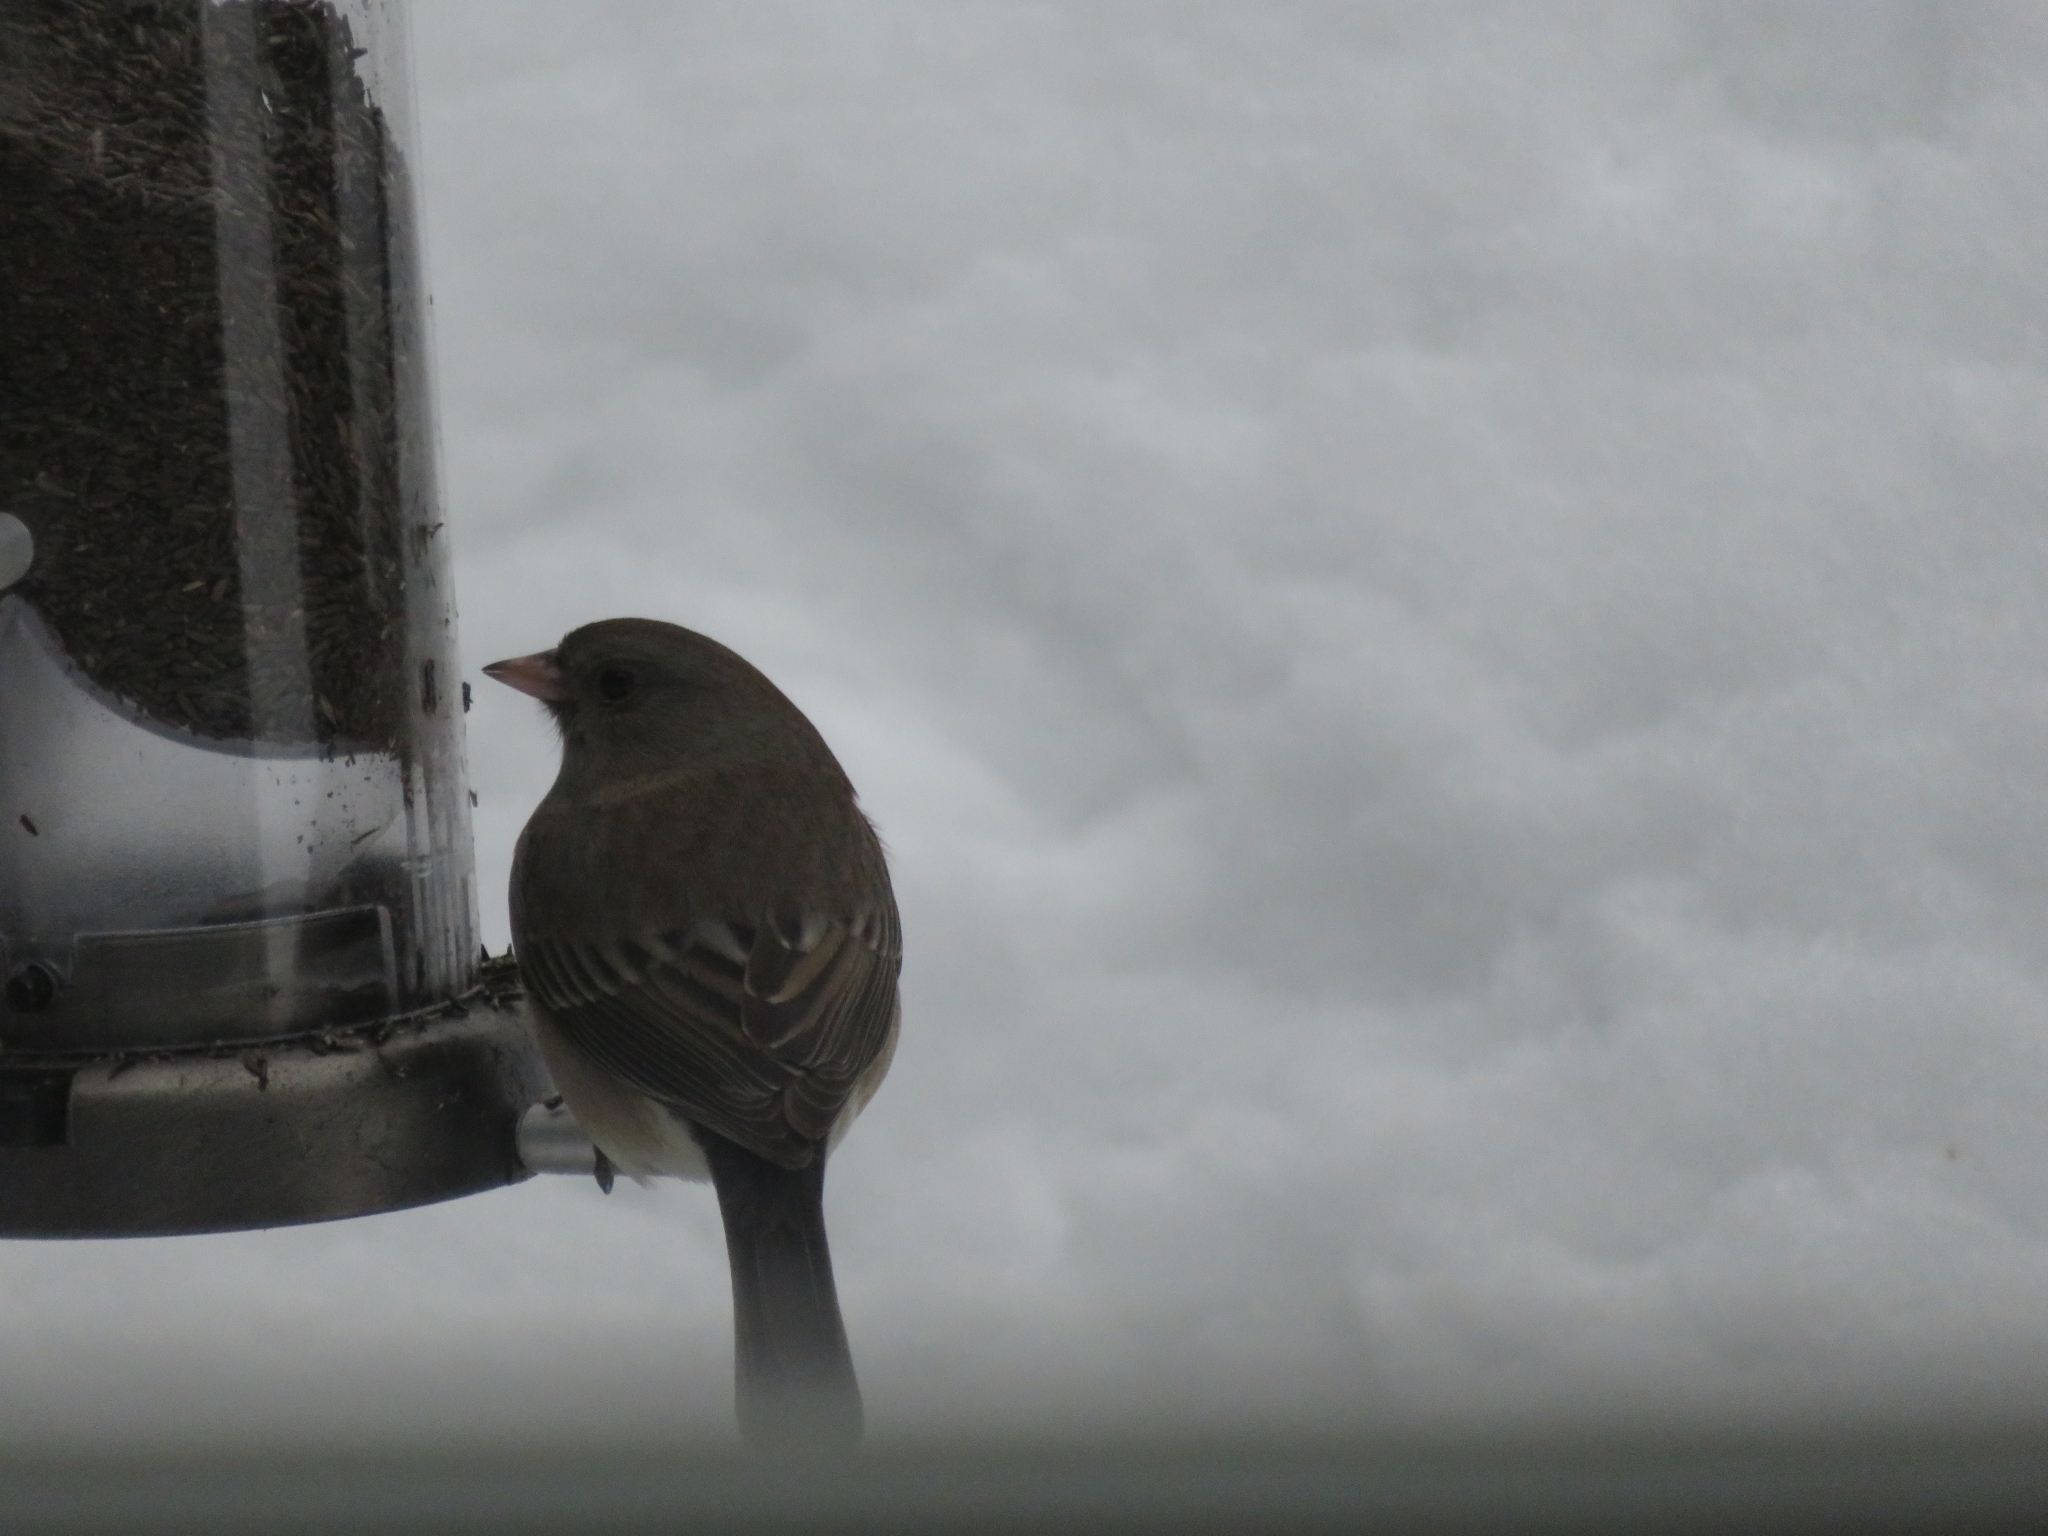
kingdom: Animalia
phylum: Chordata
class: Aves
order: Passeriformes
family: Passerellidae
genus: Junco
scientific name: Junco hyemalis
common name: Dark-eyed junco
